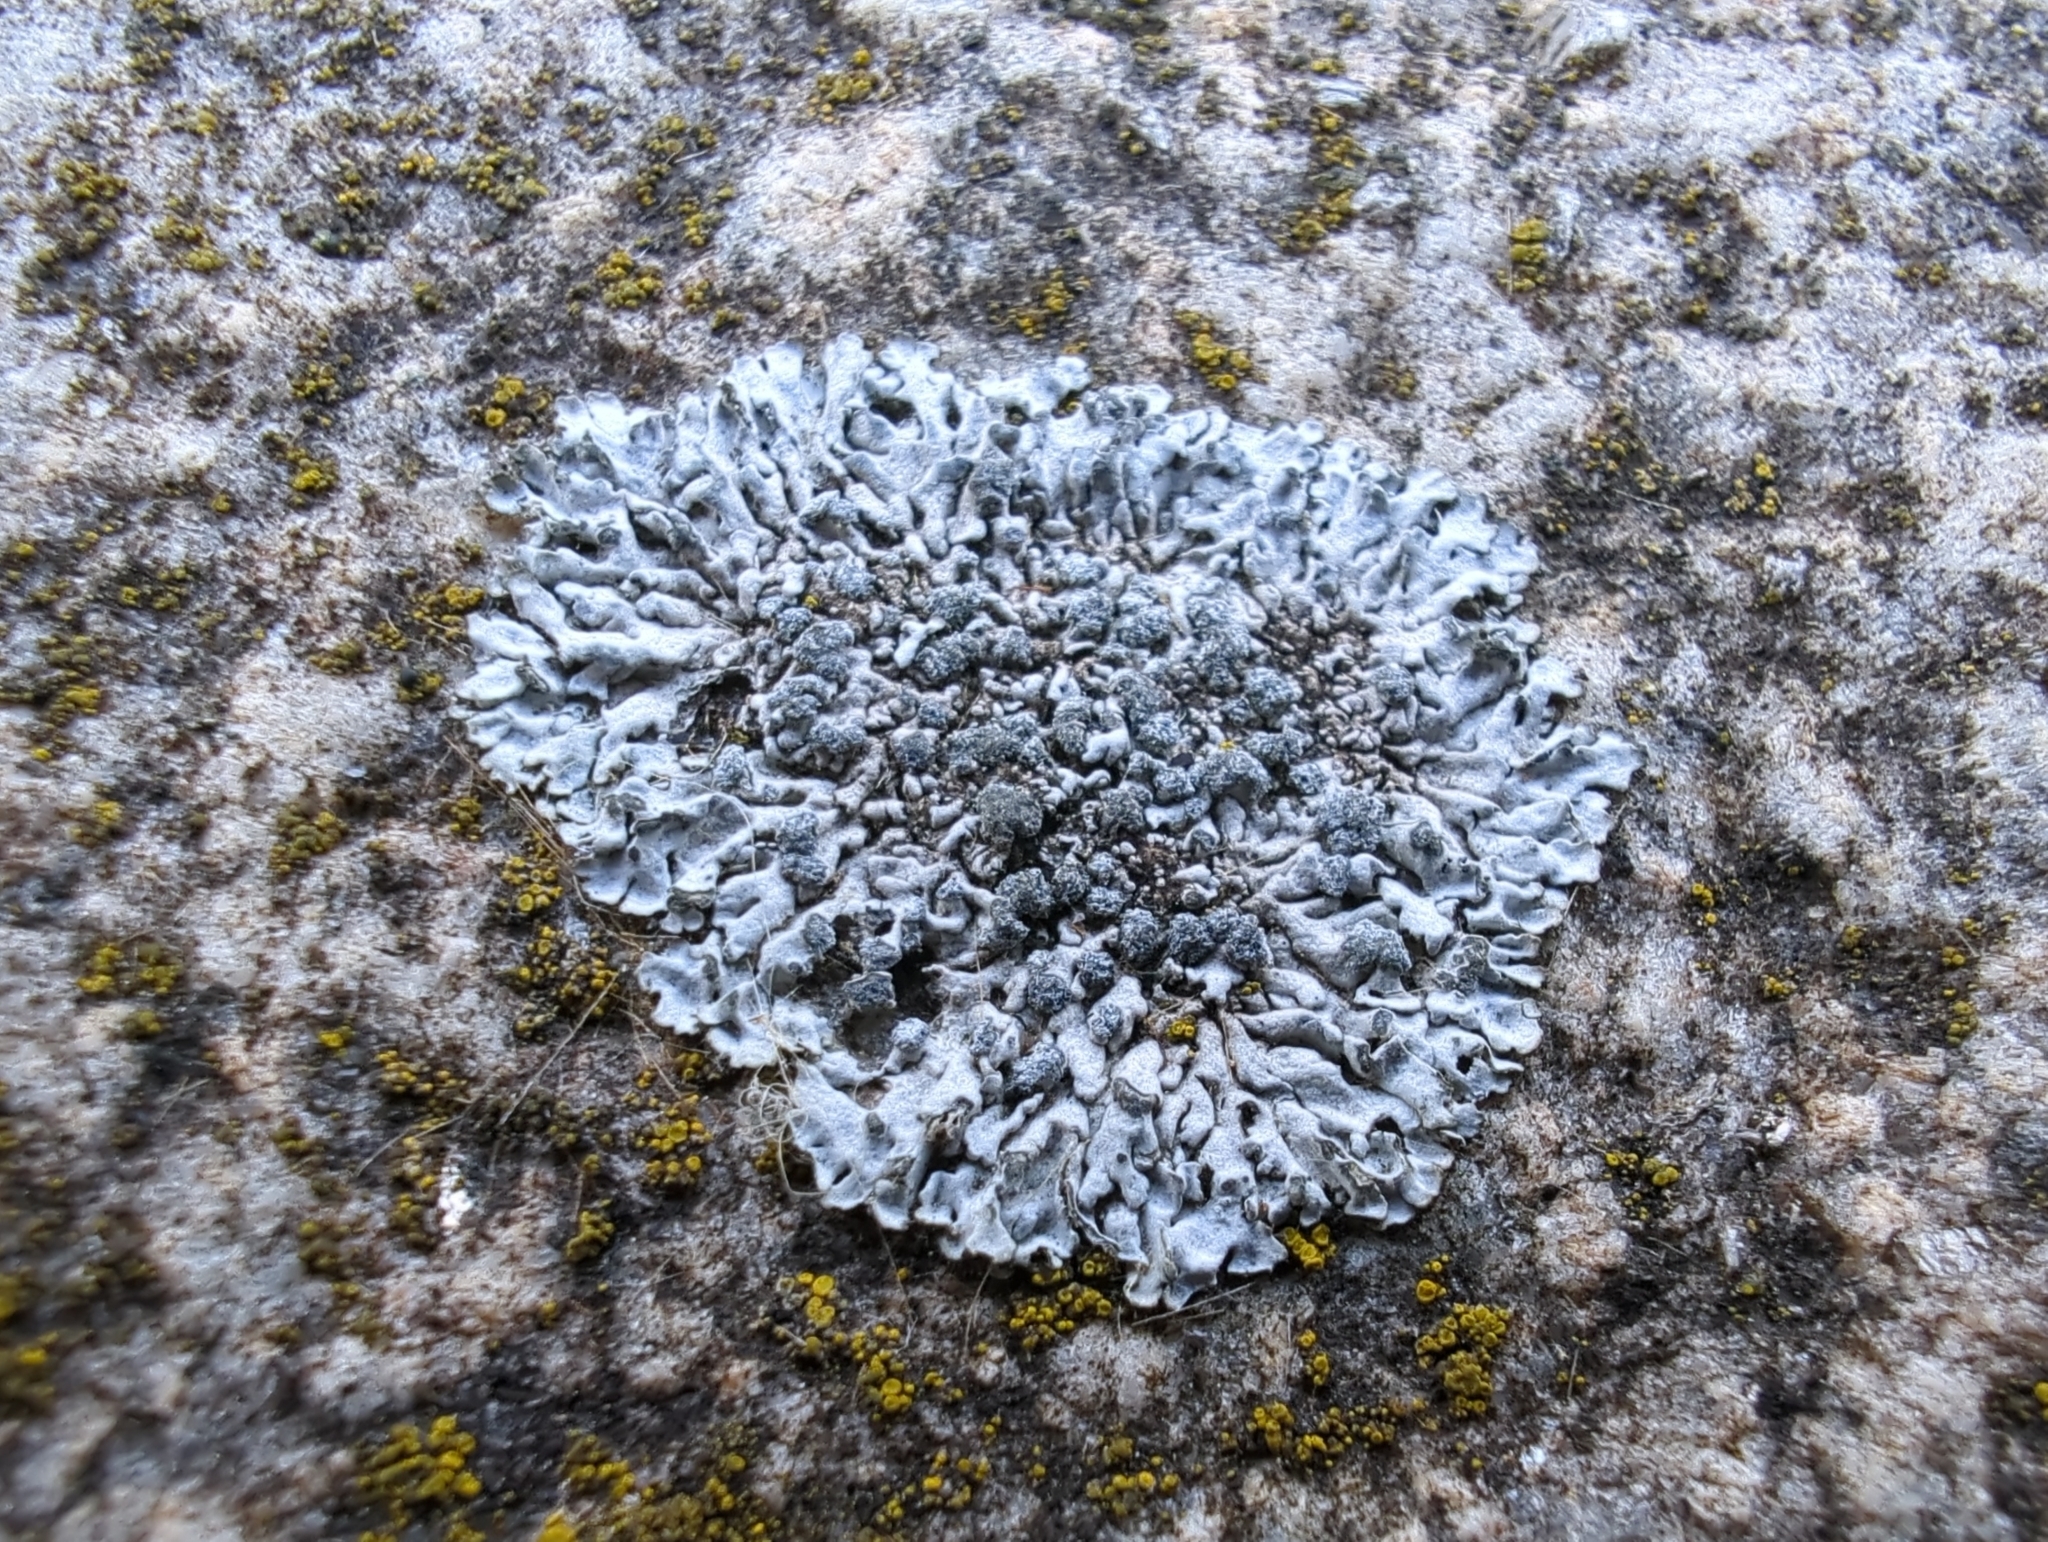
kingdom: Fungi
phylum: Ascomycota
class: Lecanoromycetes
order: Caliciales
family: Physciaceae
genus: Physcia
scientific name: Physcia caesia
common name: Blue-gray rosette lichen
